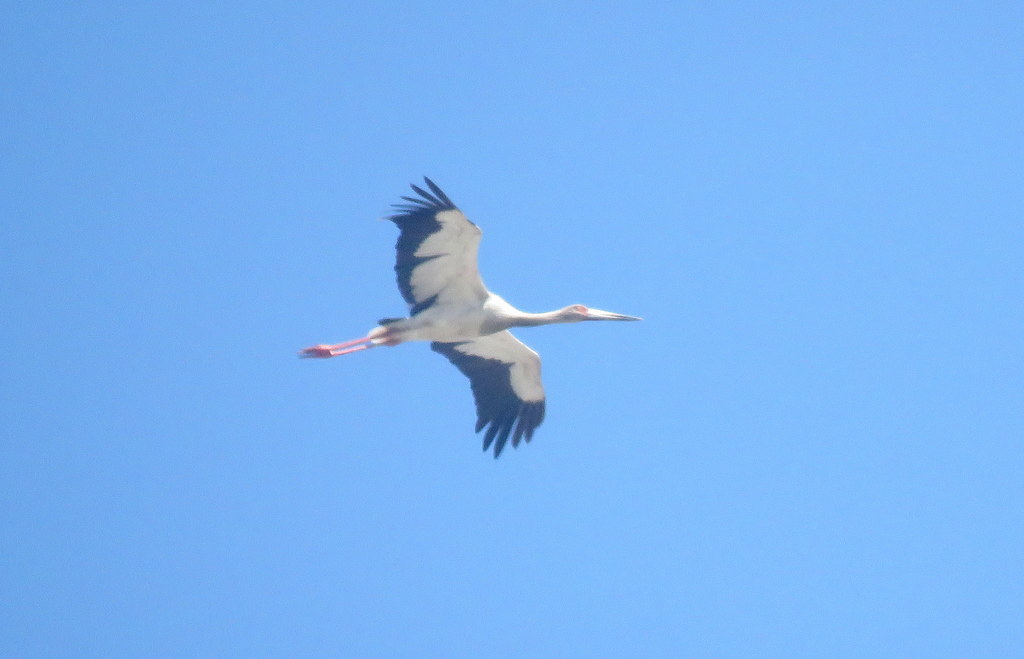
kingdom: Animalia
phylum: Chordata
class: Aves
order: Ciconiiformes
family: Ciconiidae
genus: Ciconia
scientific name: Ciconia maguari
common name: Maguari stork
